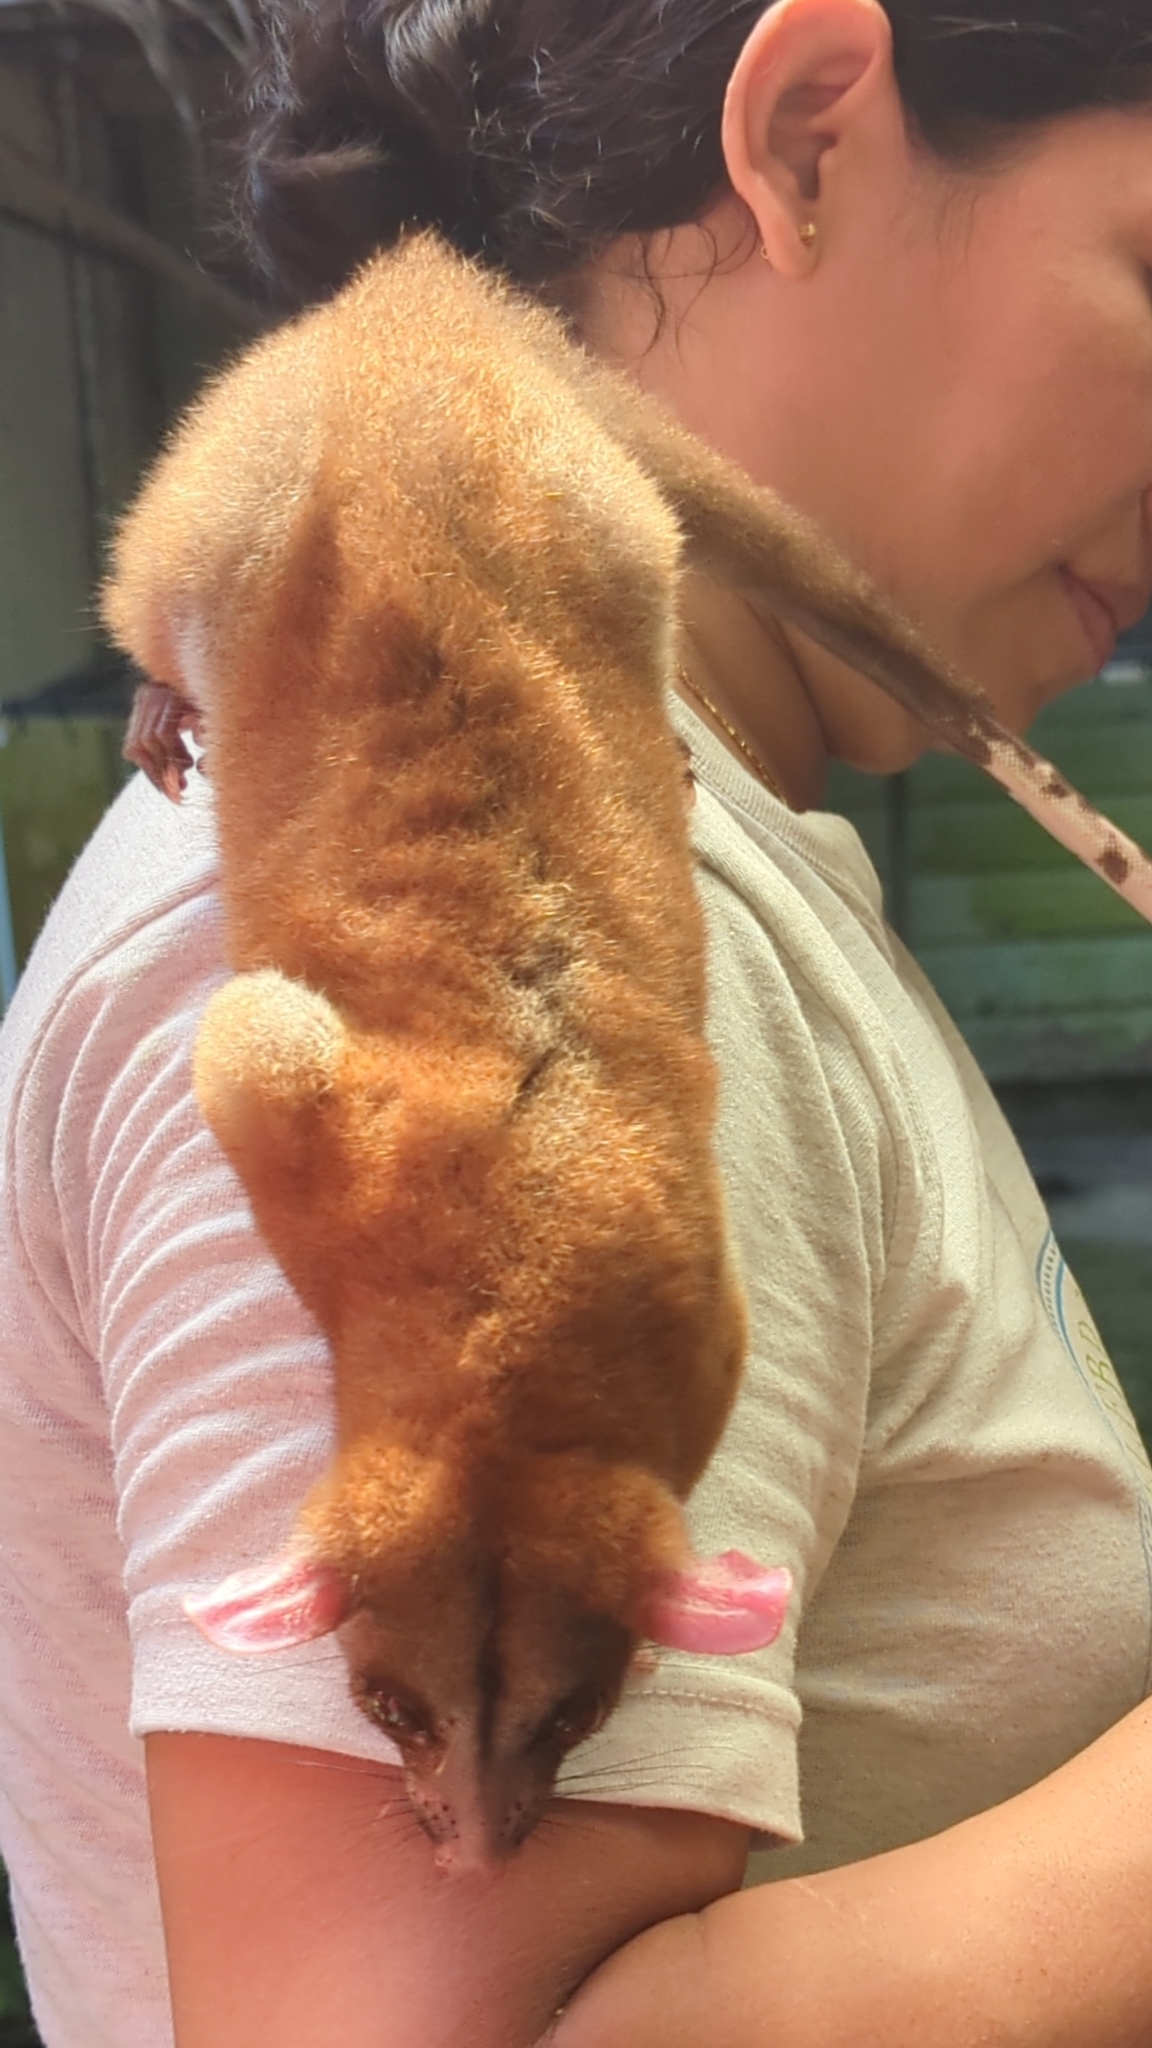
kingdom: Animalia
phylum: Chordata
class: Mammalia
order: Didelphimorphia
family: Didelphidae
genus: Caluromys
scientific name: Caluromys derbianus
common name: Derby's woolly opossum
